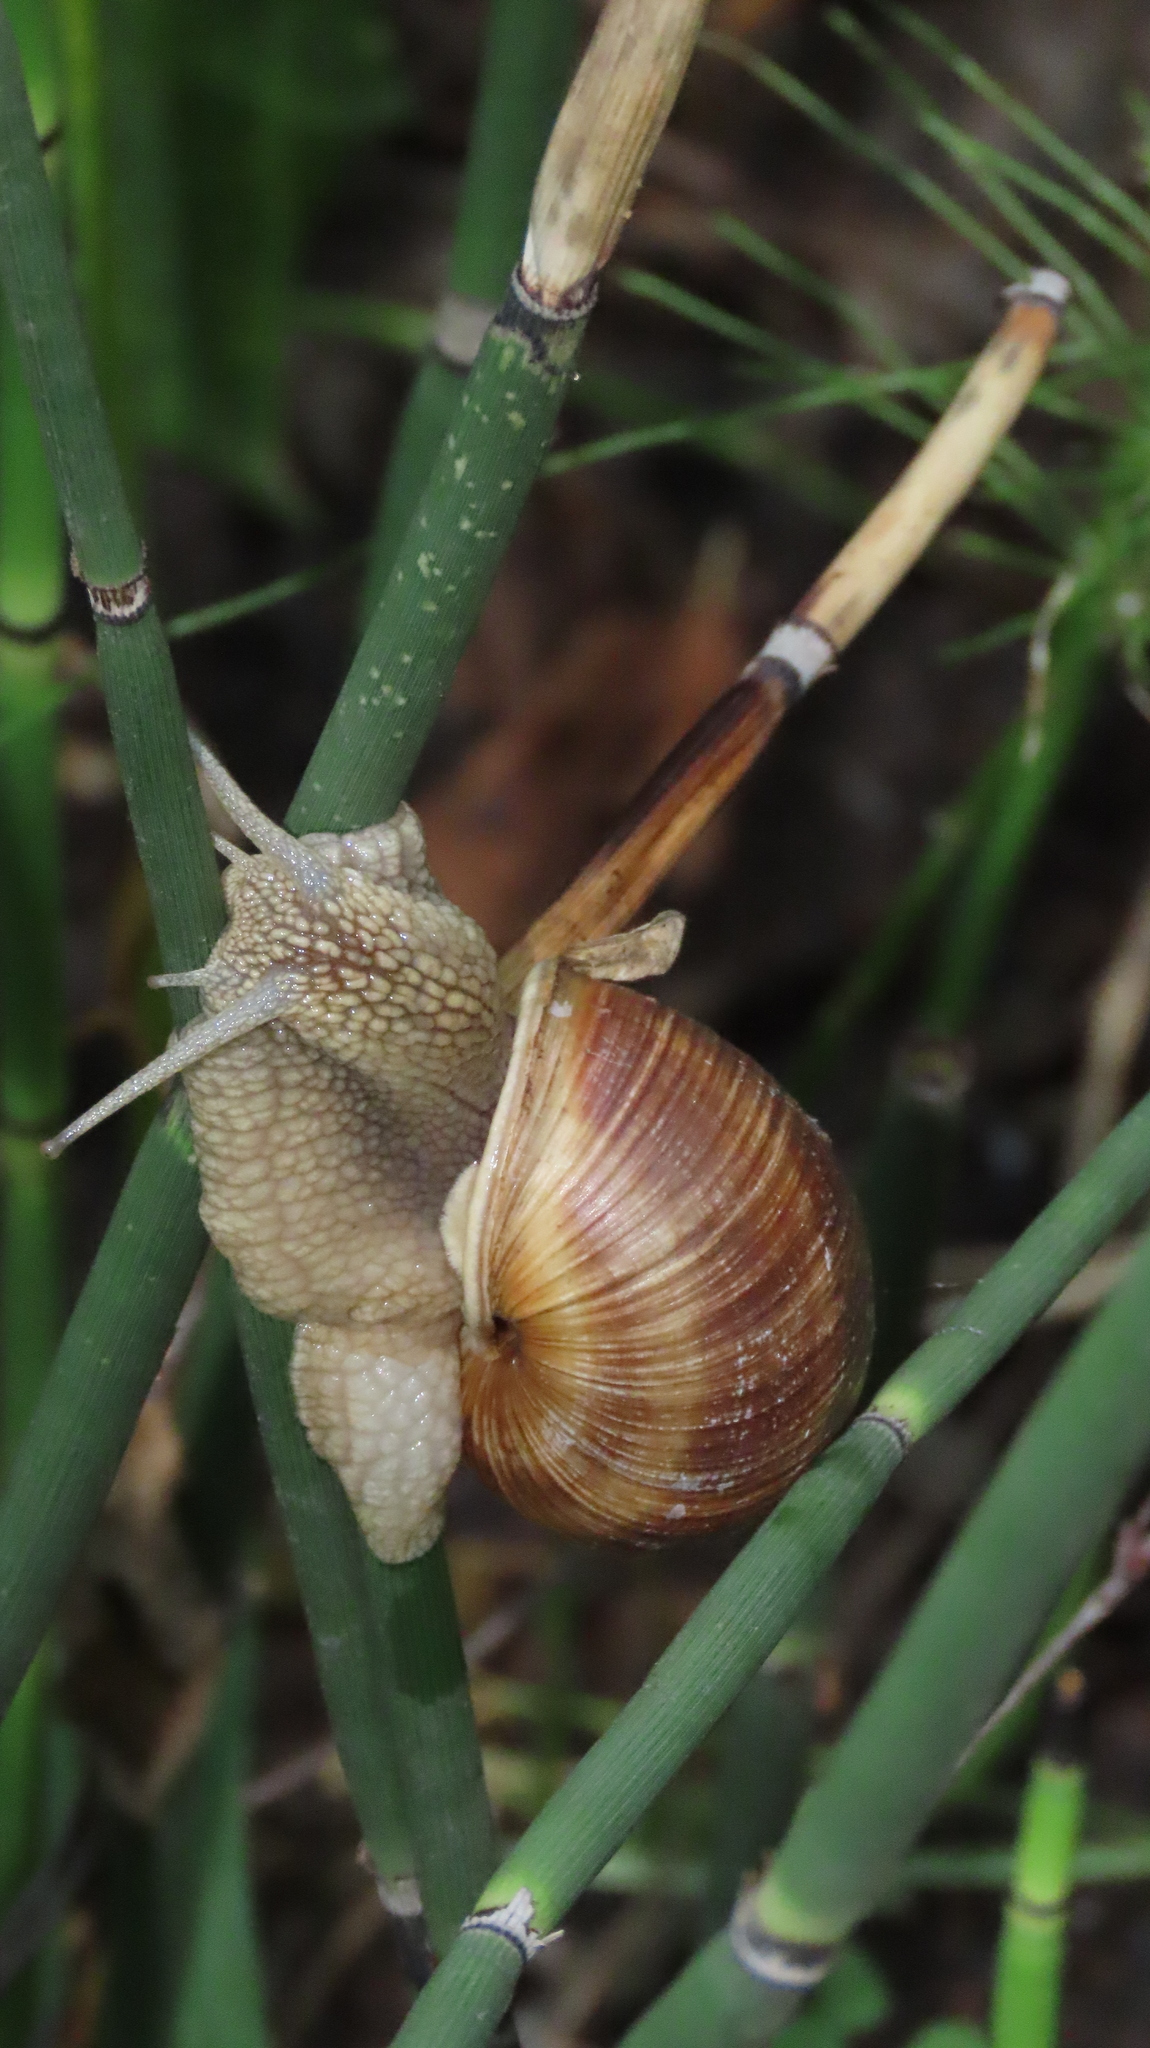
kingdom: Animalia
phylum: Mollusca
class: Gastropoda
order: Stylommatophora
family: Helicidae
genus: Helix
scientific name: Helix pomatia
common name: Roman snail
